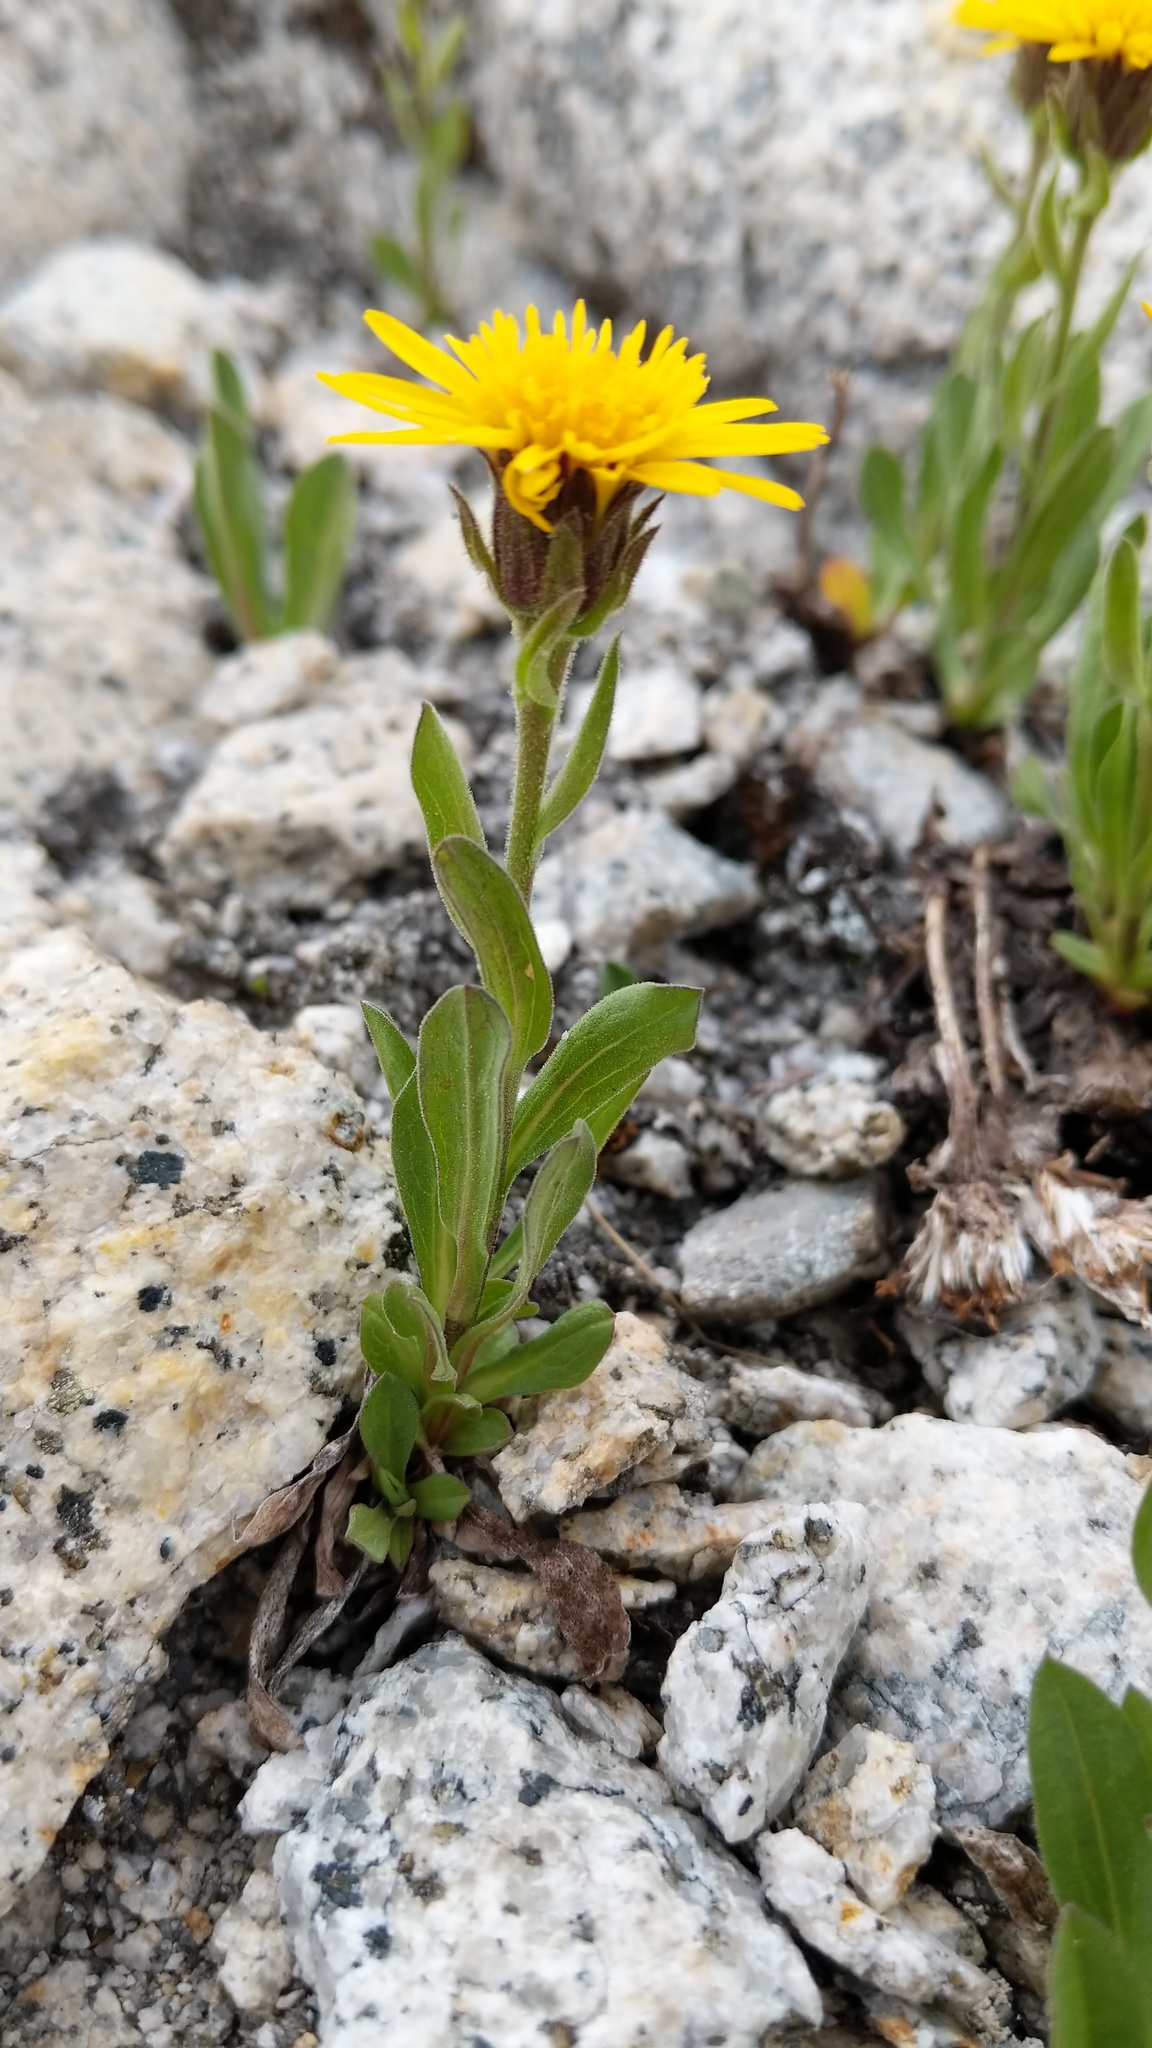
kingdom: Plantae
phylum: Tracheophyta
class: Magnoliopsida
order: Asterales
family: Asteraceae
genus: Tonestus
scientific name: Tonestus lyallii
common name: Lyall's goldenweed
